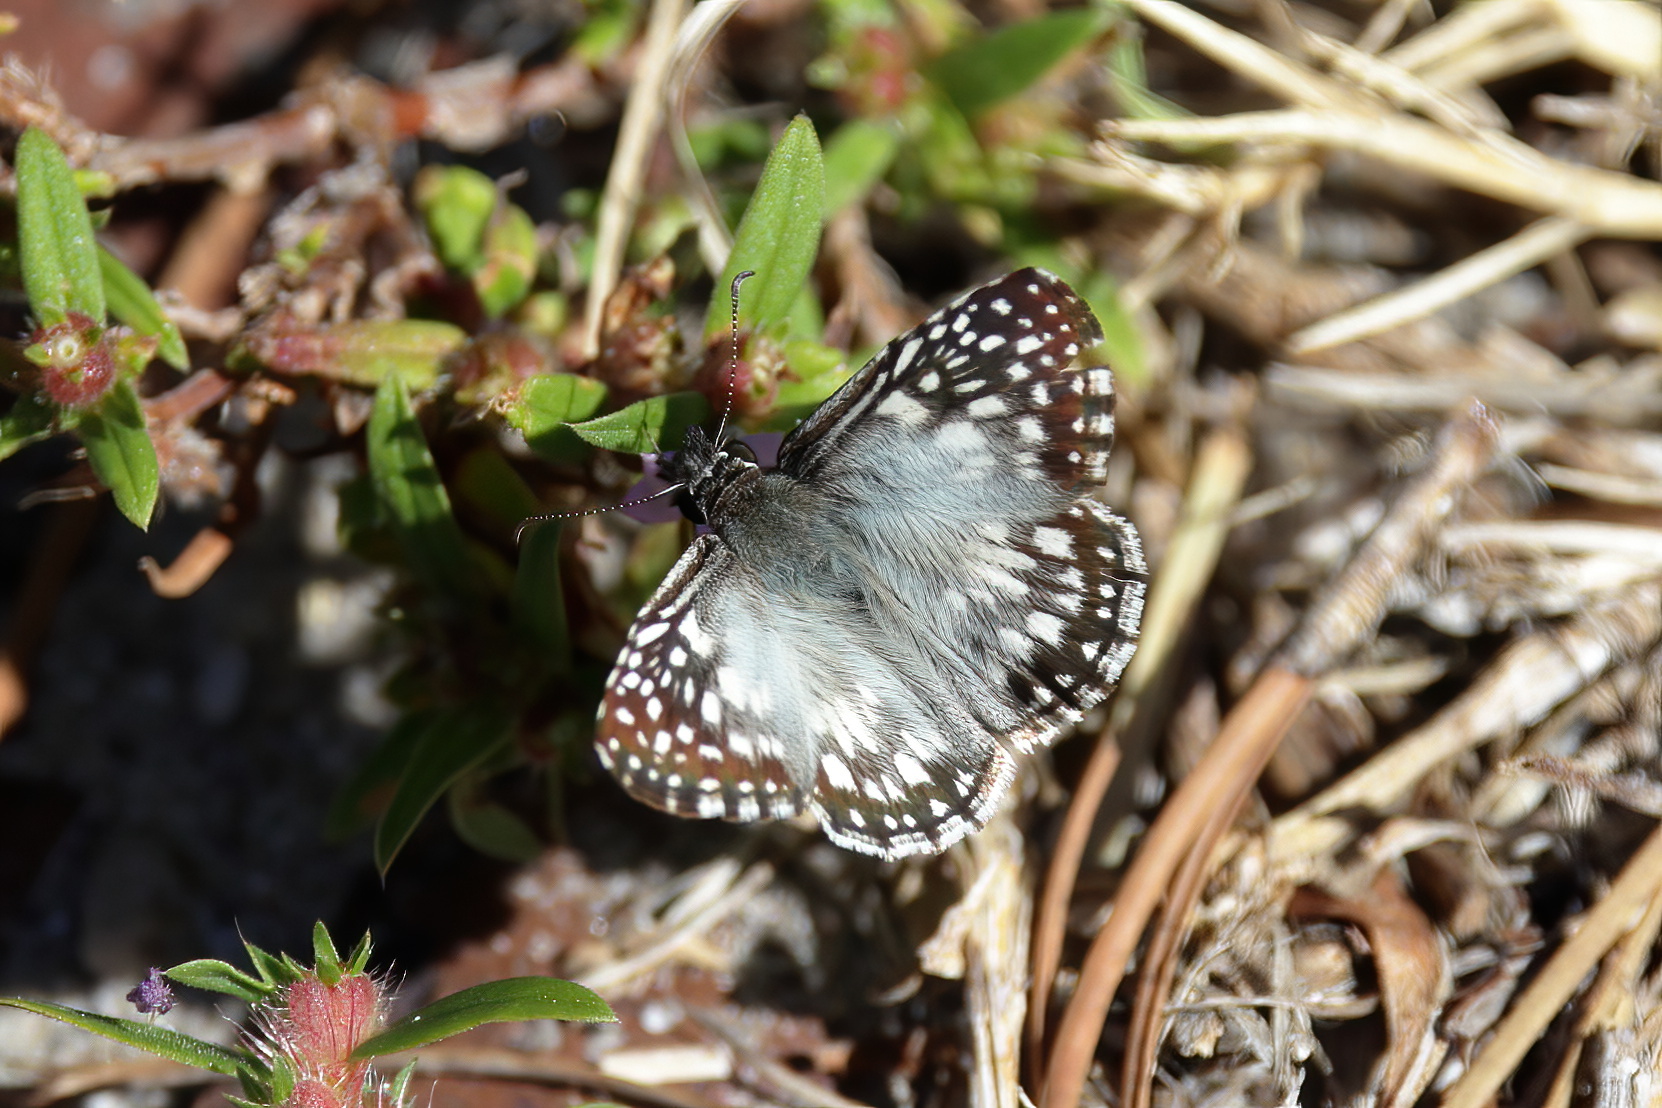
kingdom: Animalia
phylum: Arthropoda
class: Insecta
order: Lepidoptera
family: Hesperiidae
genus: Pyrgus
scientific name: Pyrgus oileus
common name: Tropical checkered-skipper
